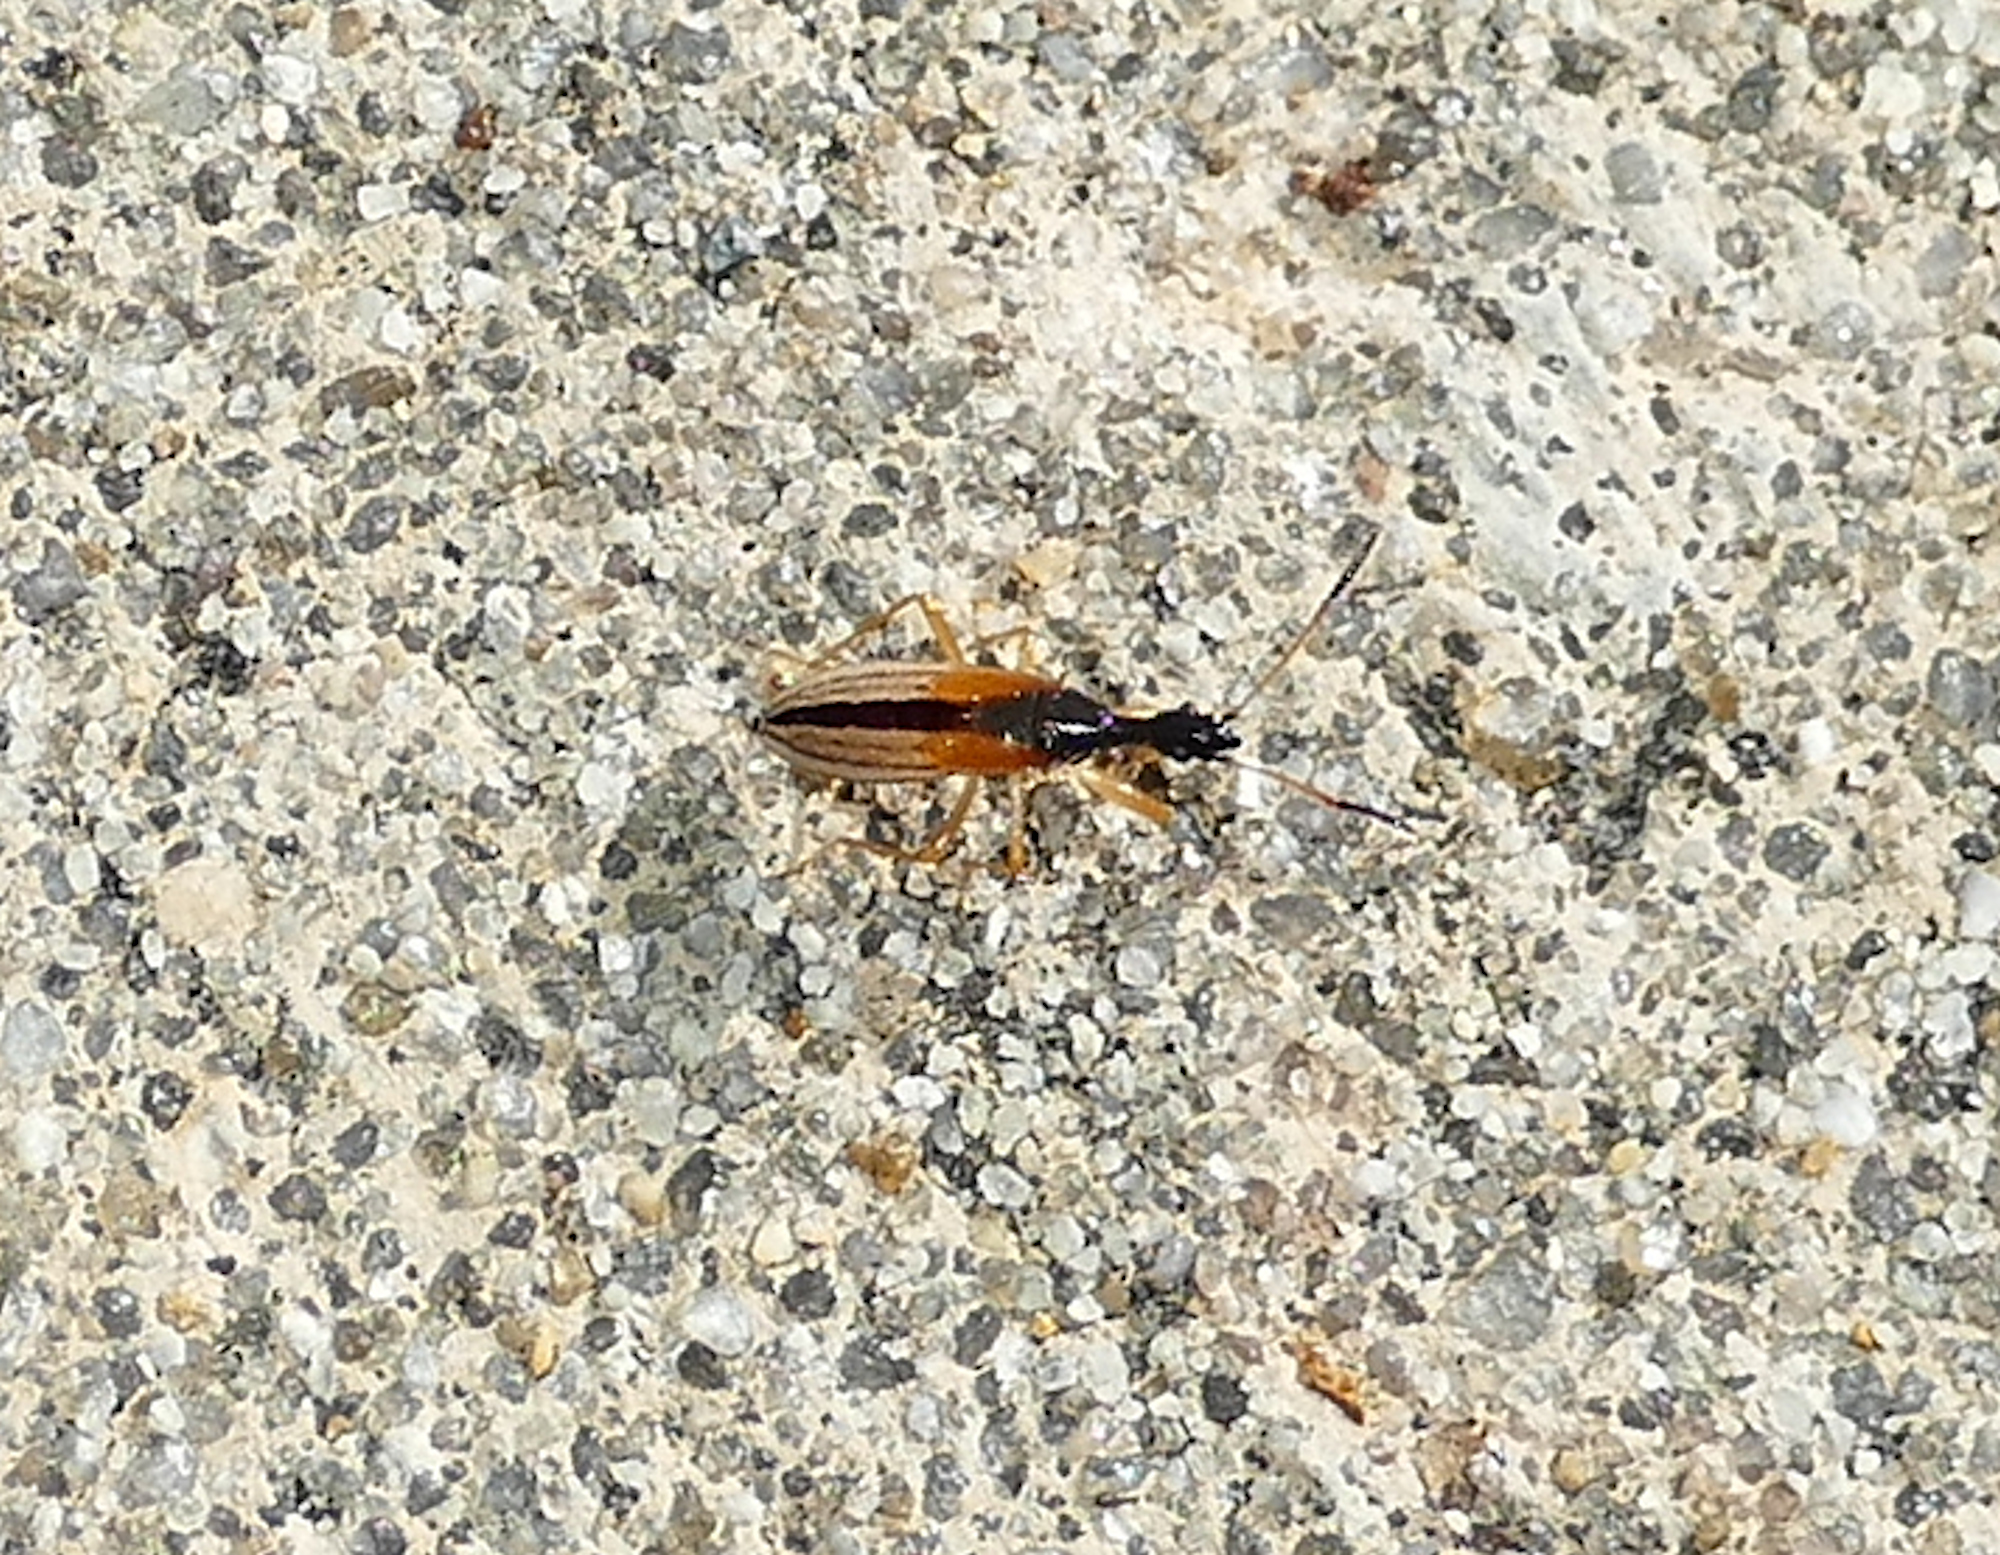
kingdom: Animalia
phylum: Arthropoda
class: Insecta
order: Hemiptera
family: Rhyparochromidae
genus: Myodocha
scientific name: Myodocha serripes
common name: Long-necked seed bug
